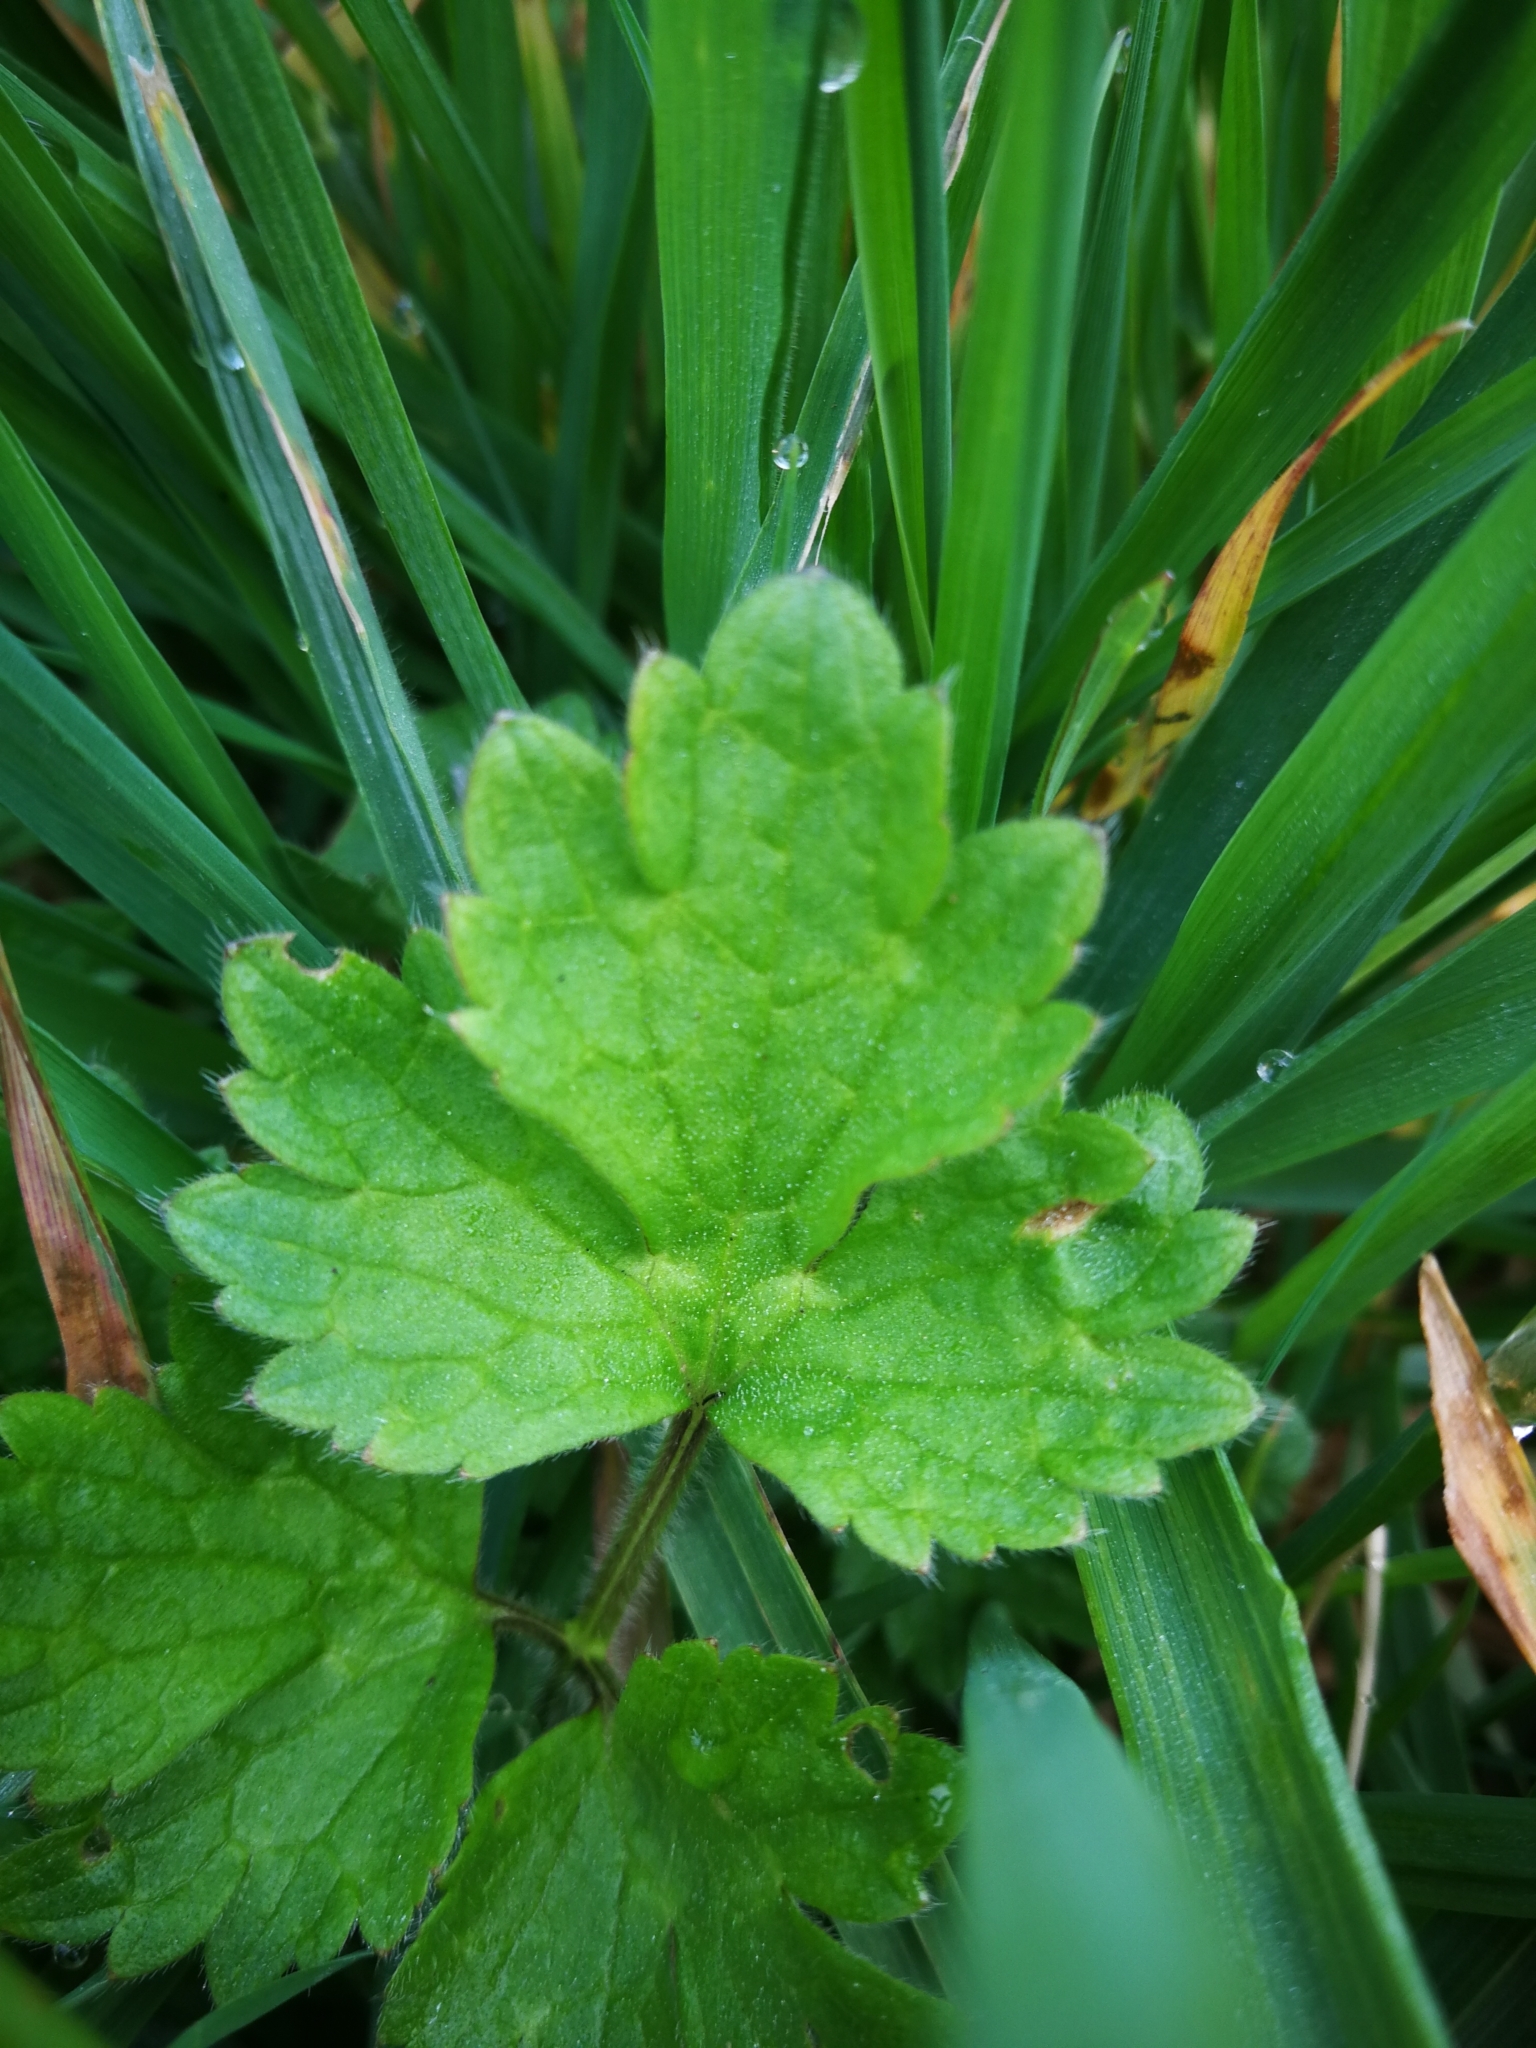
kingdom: Plantae
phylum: Tracheophyta
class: Magnoliopsida
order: Ranunculales
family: Ranunculaceae
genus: Ranunculus
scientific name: Ranunculus repens
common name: Creeping buttercup
